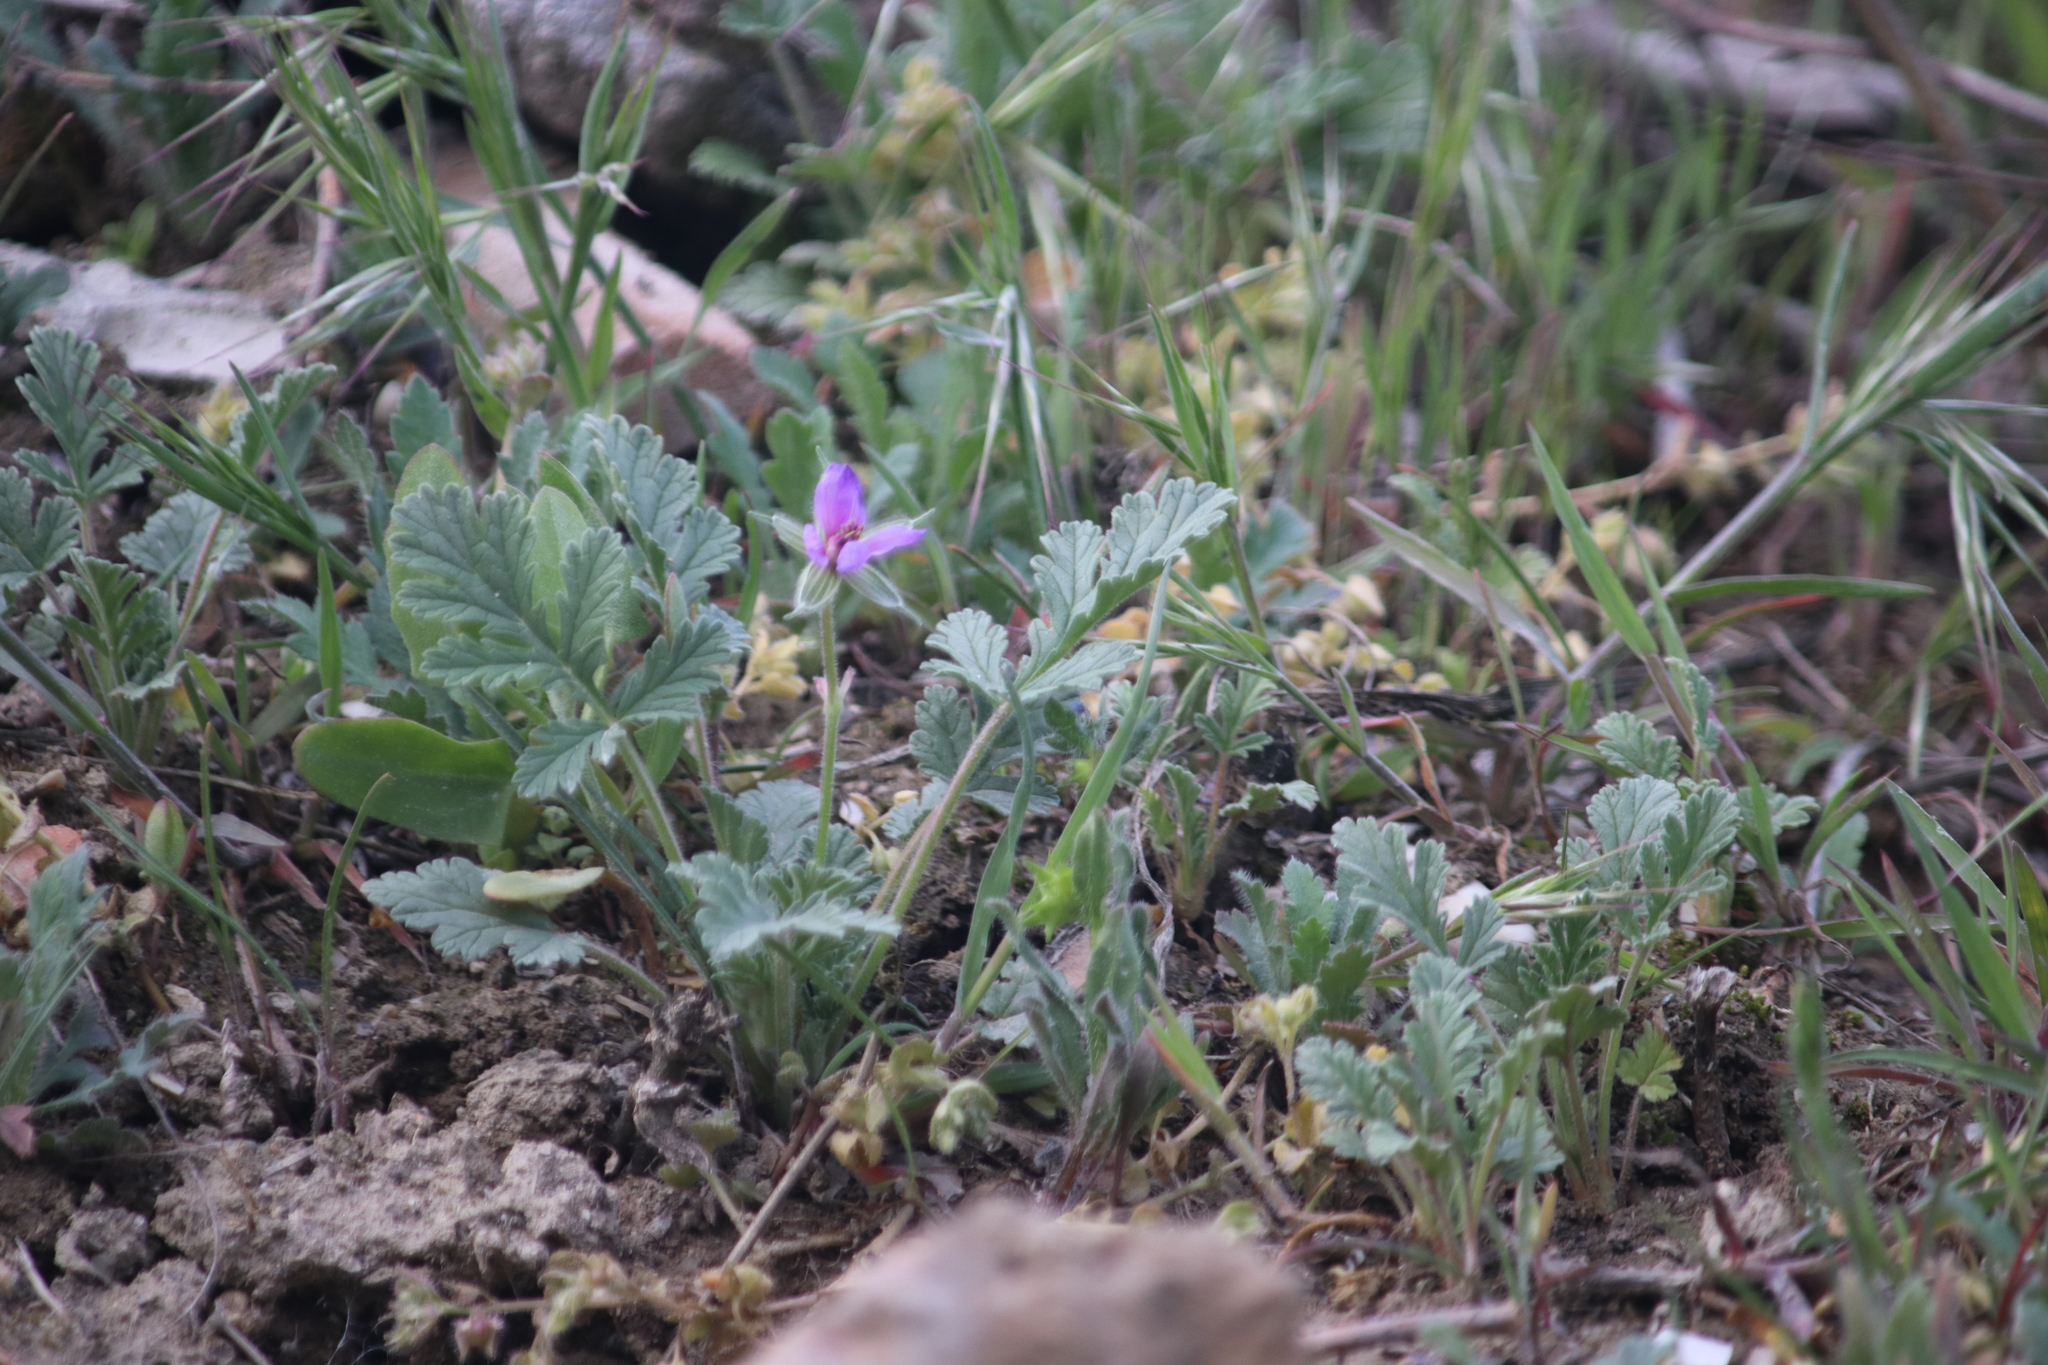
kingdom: Plantae
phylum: Tracheophyta
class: Magnoliopsida
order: Geraniales
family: Geraniaceae
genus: Erodium
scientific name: Erodium hoefftianum
